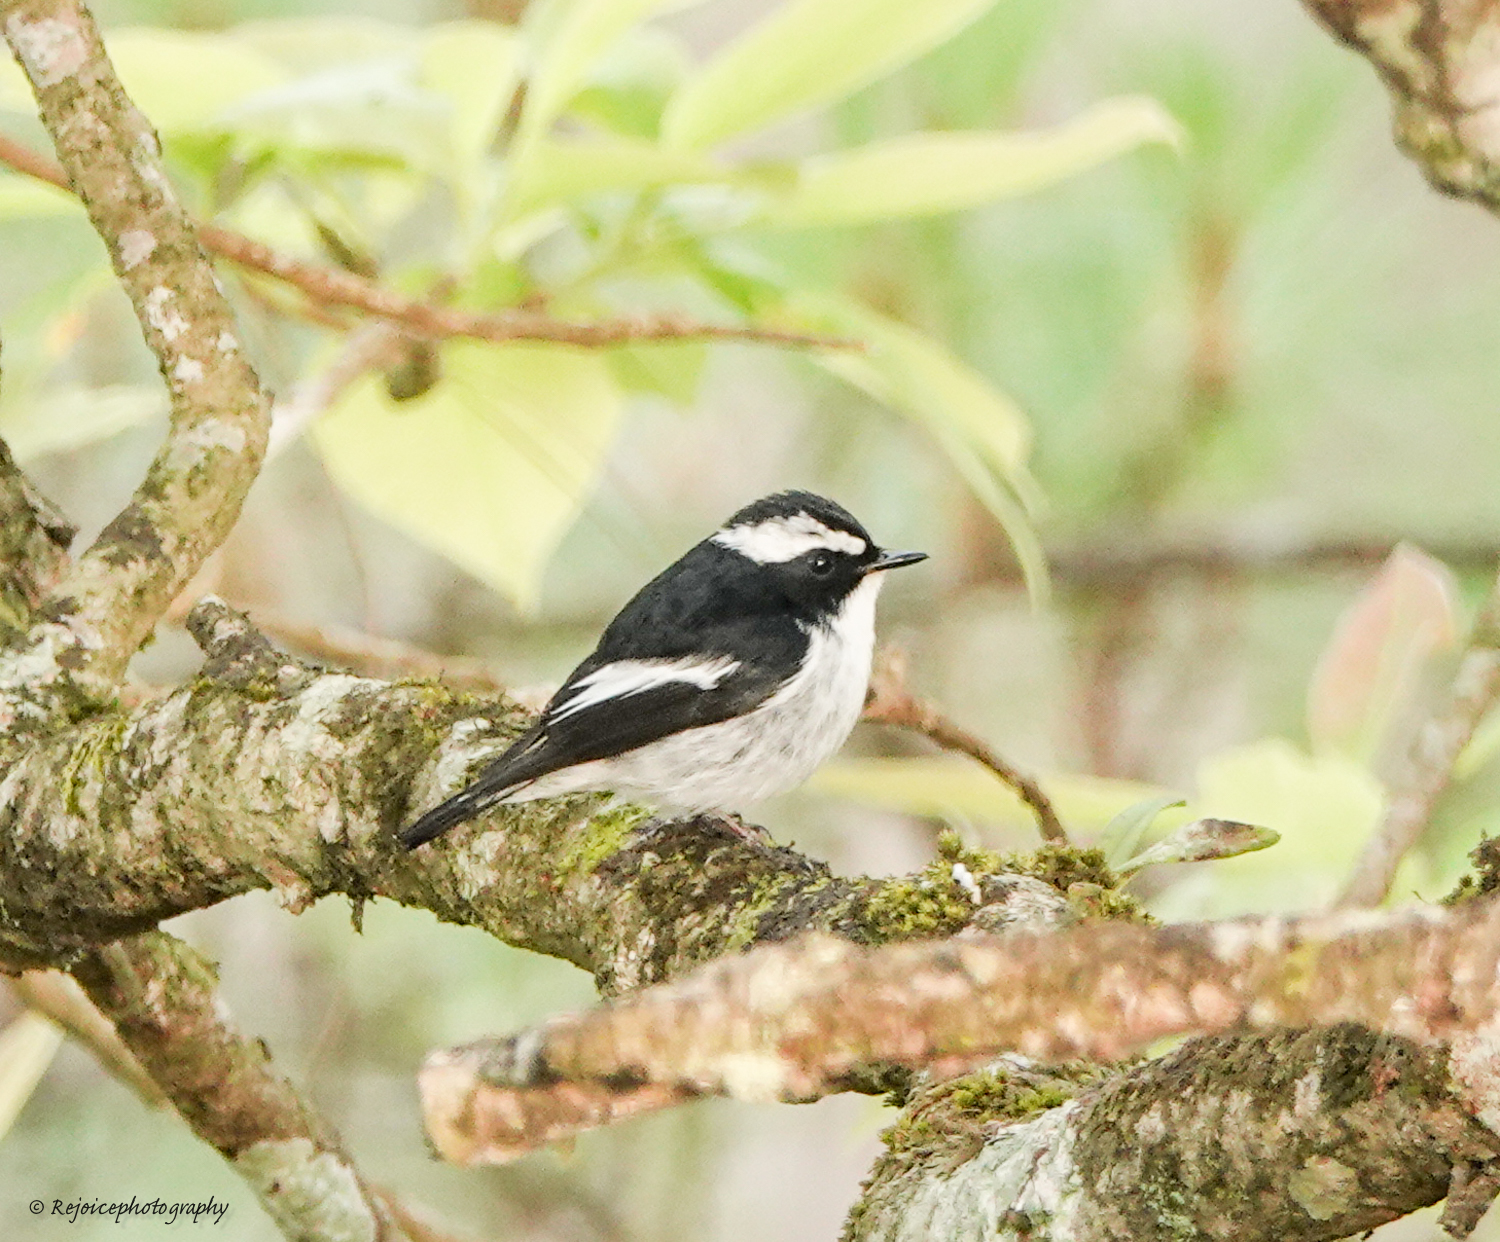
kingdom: Animalia
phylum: Chordata
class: Aves
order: Passeriformes
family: Muscicapidae
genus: Ficedula
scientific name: Ficedula westermanni
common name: Little pied flycatcher
